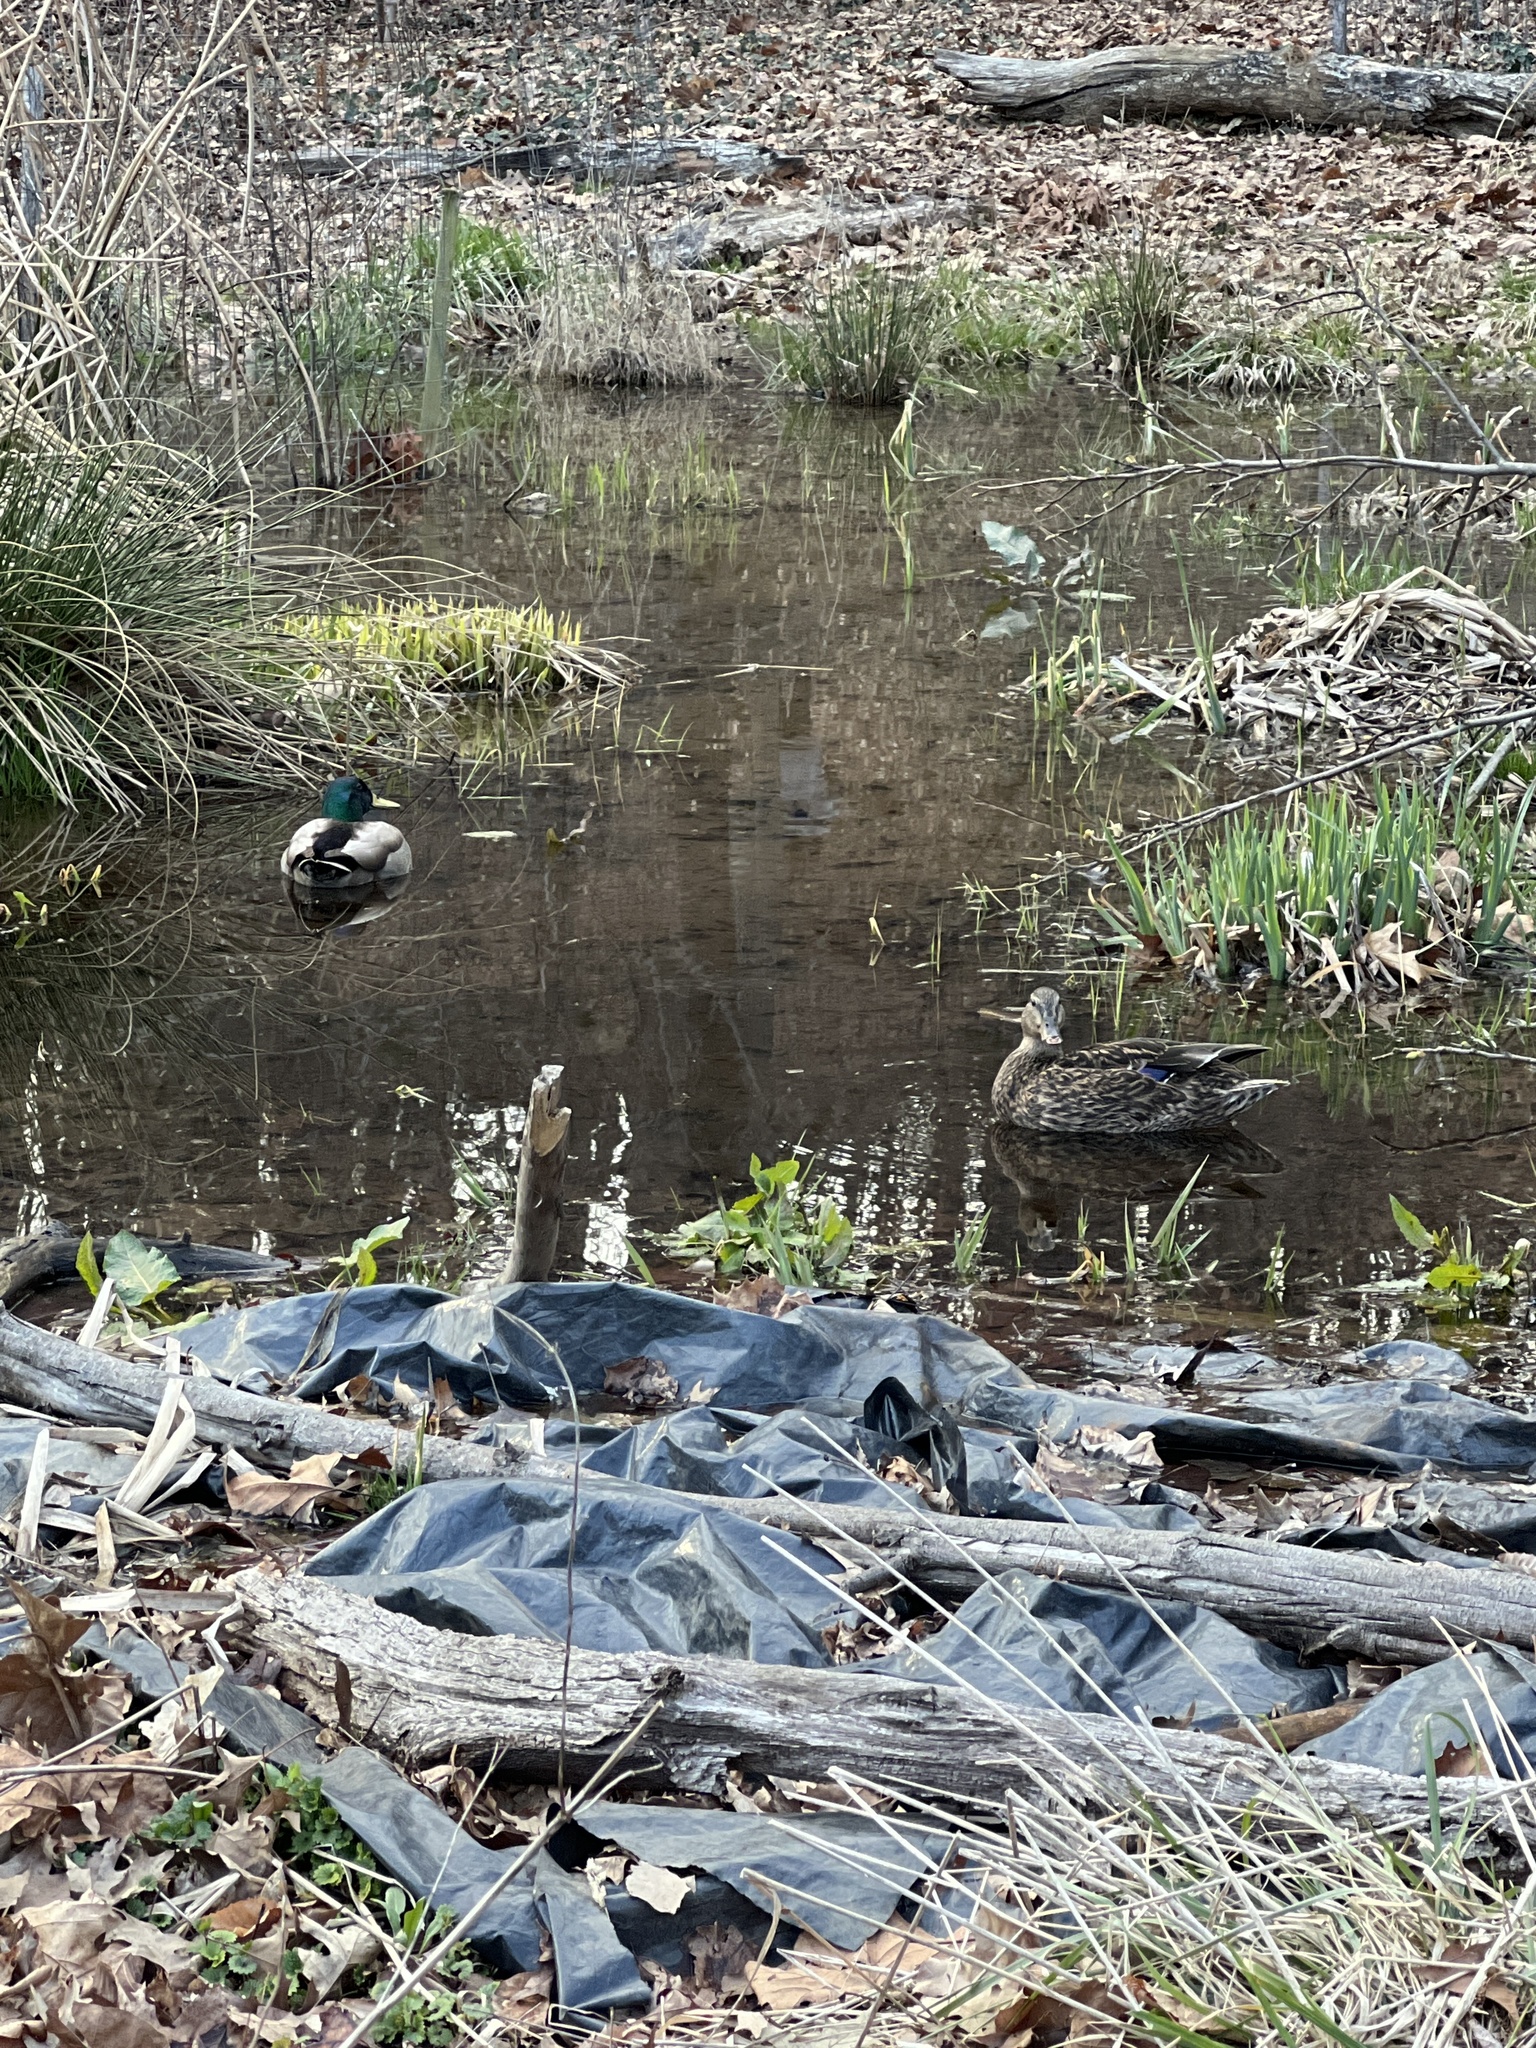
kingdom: Animalia
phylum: Chordata
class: Aves
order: Anseriformes
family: Anatidae
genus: Anas
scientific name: Anas platyrhynchos
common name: Mallard
